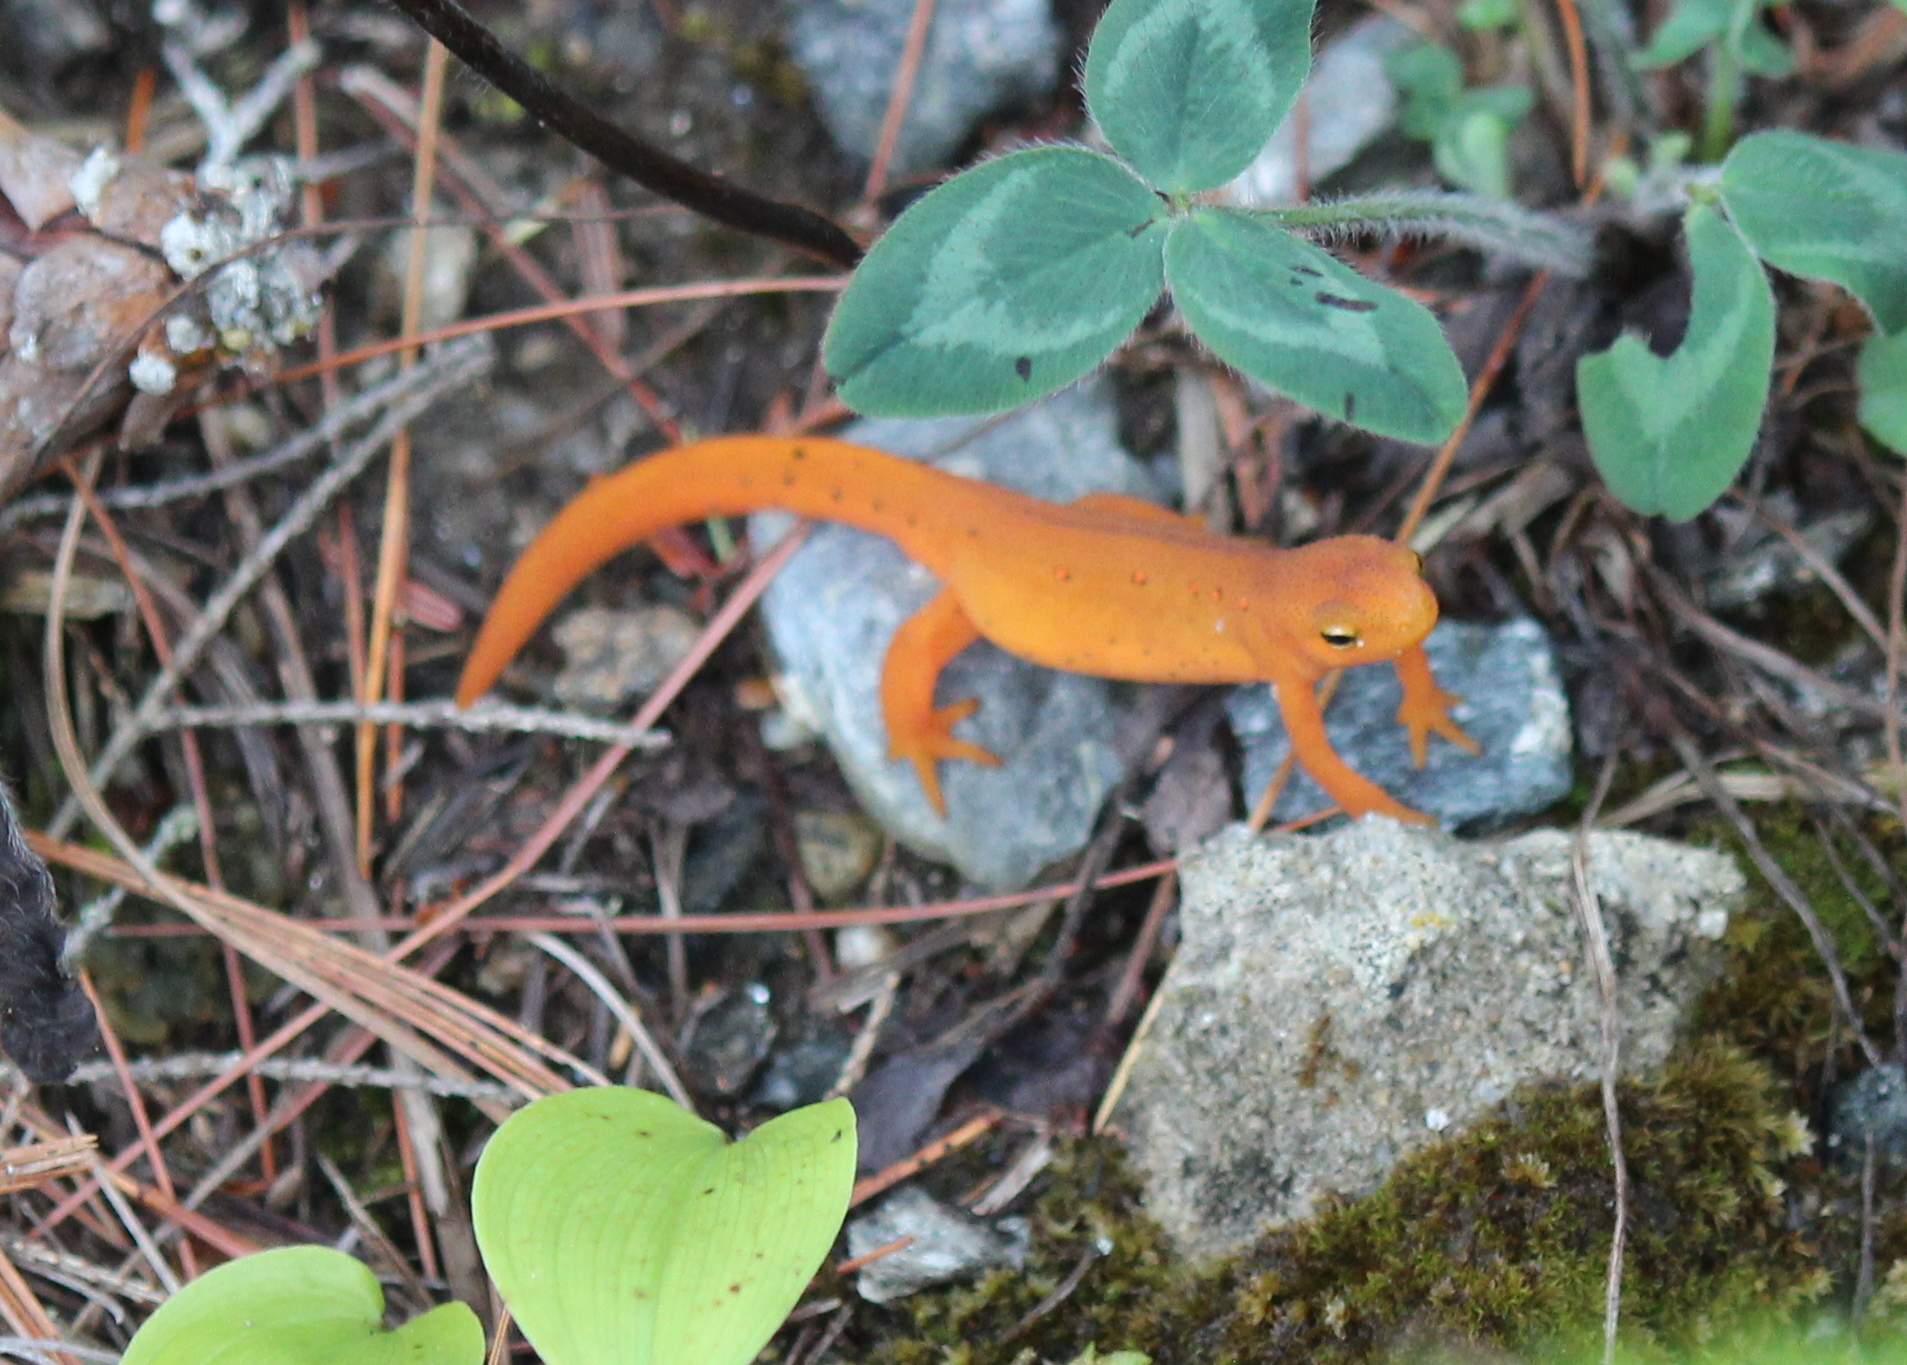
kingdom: Animalia
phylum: Chordata
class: Amphibia
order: Caudata
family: Salamandridae
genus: Notophthalmus
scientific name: Notophthalmus viridescens
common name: Eastern newt
